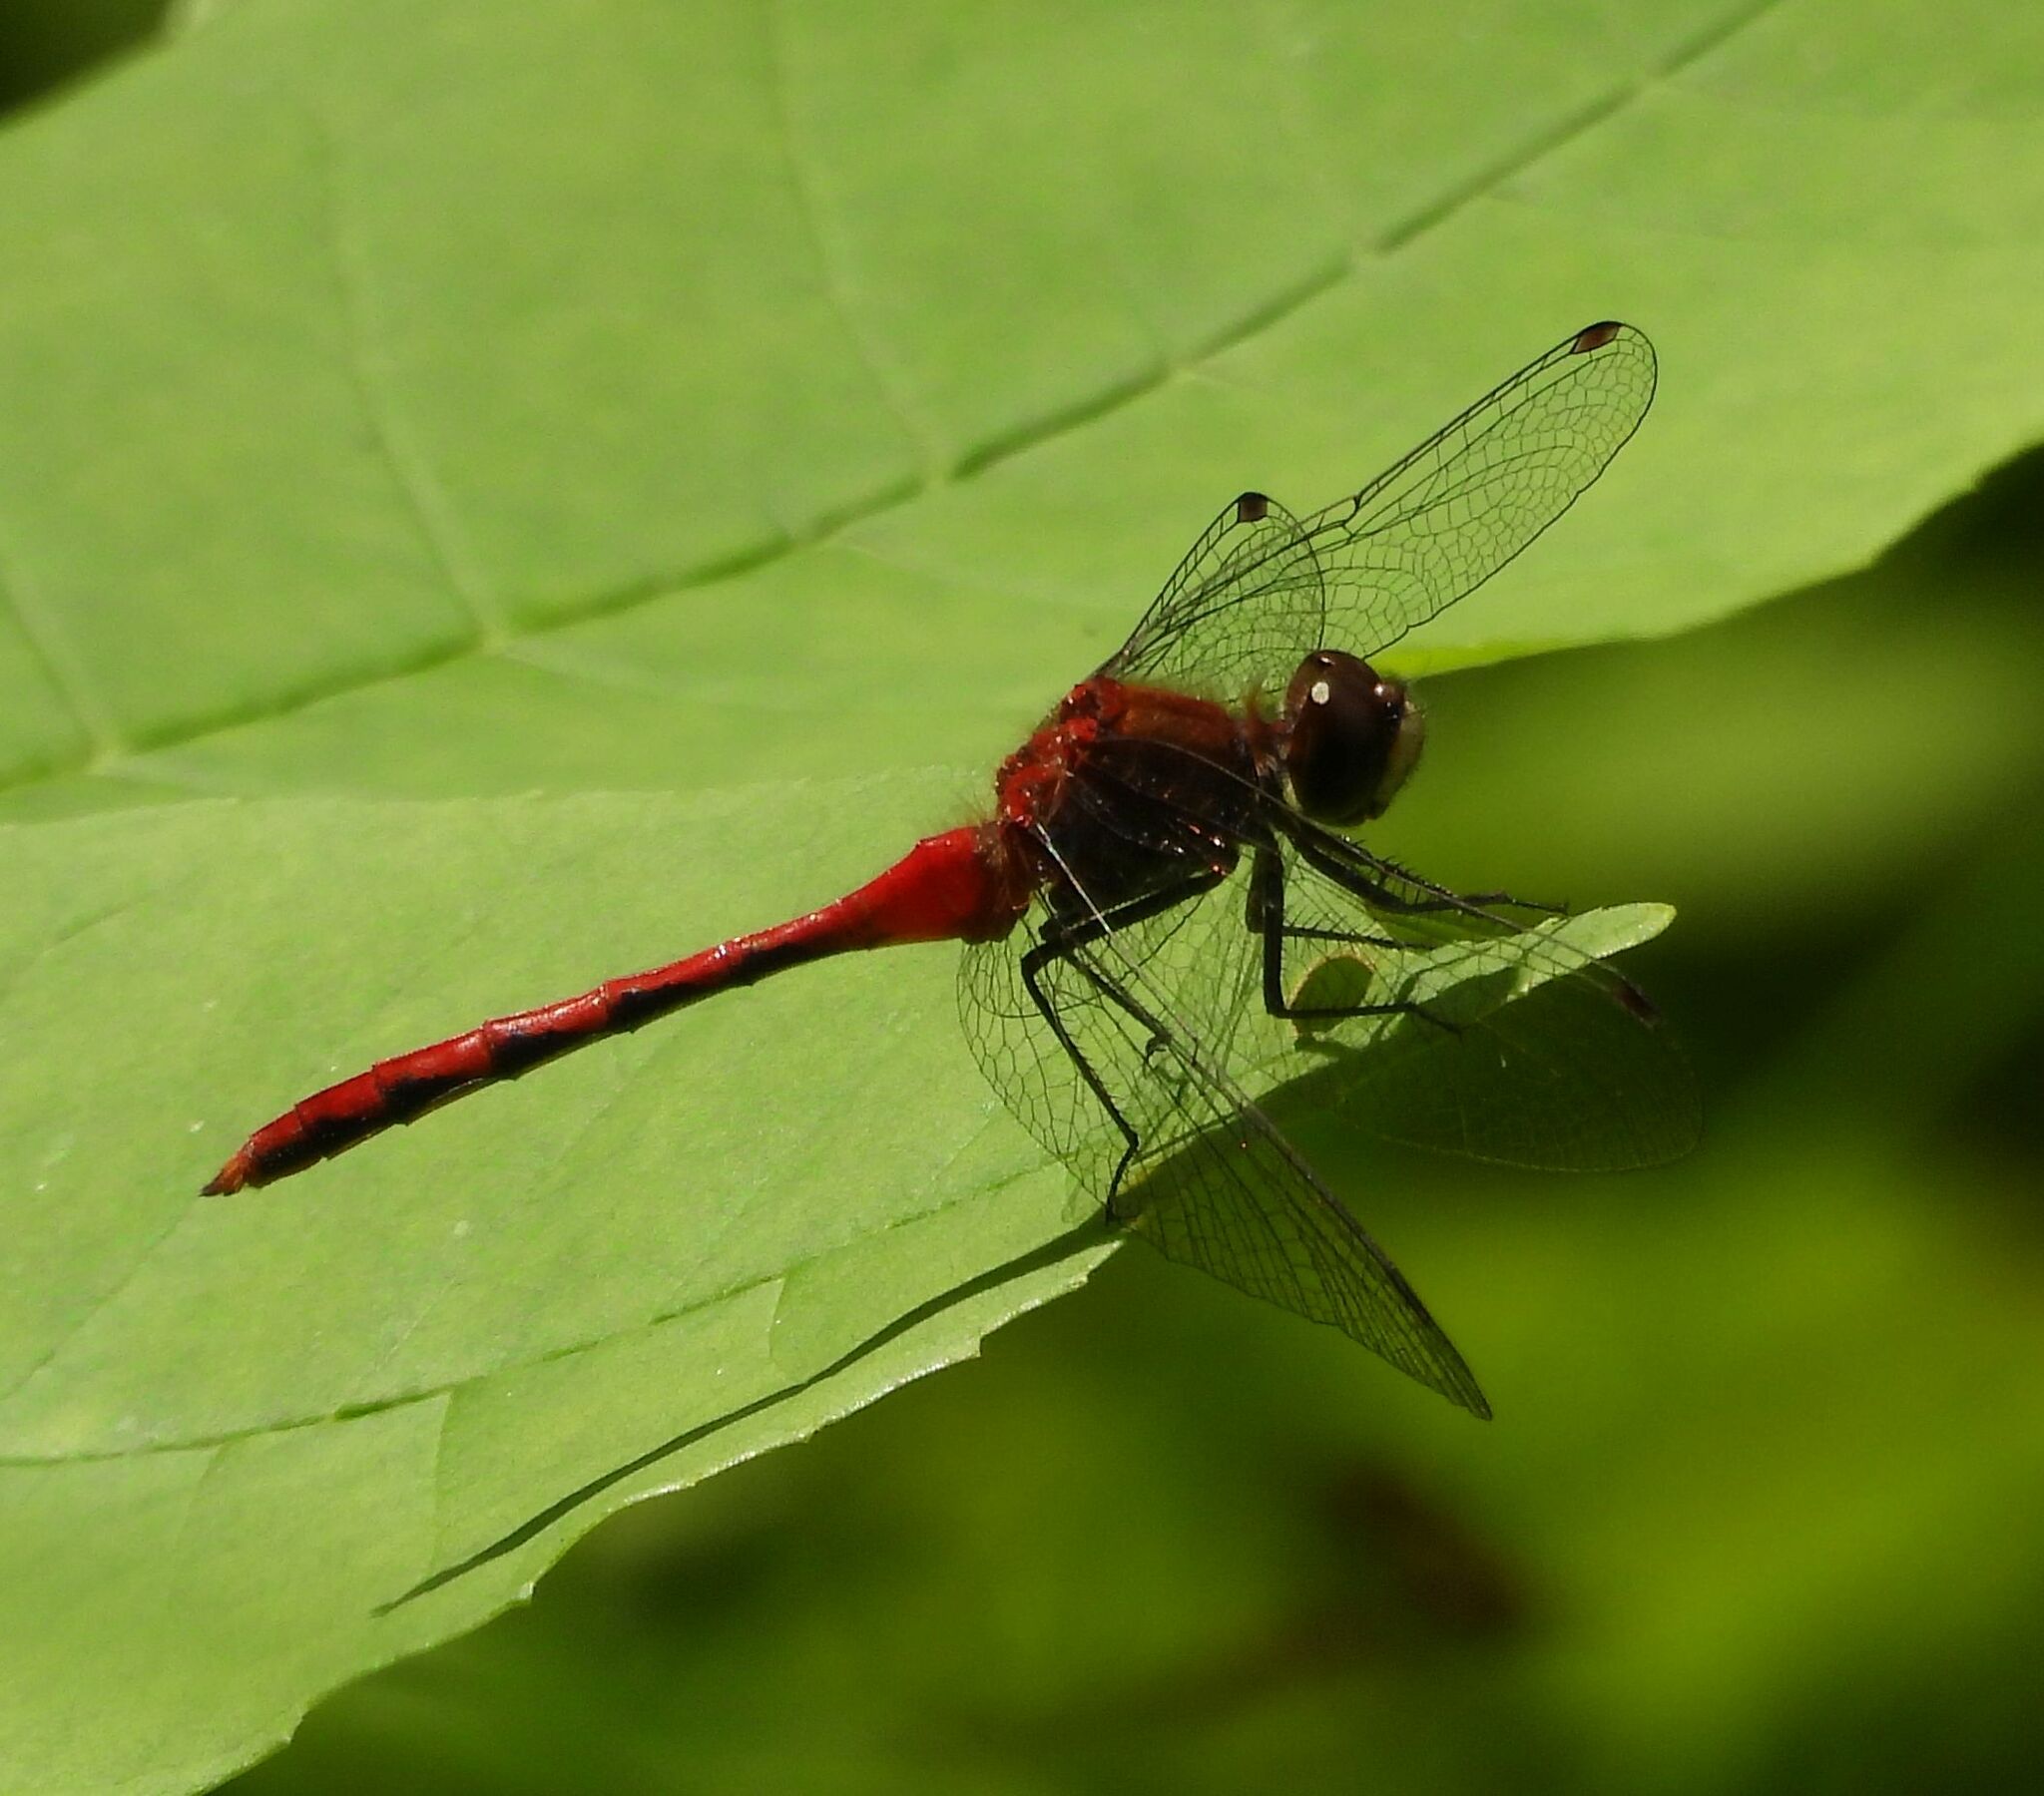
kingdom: Animalia
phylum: Arthropoda
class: Insecta
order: Odonata
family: Libellulidae
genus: Sympetrum
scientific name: Sympetrum obtrusum
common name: White-faced meadowhawk
